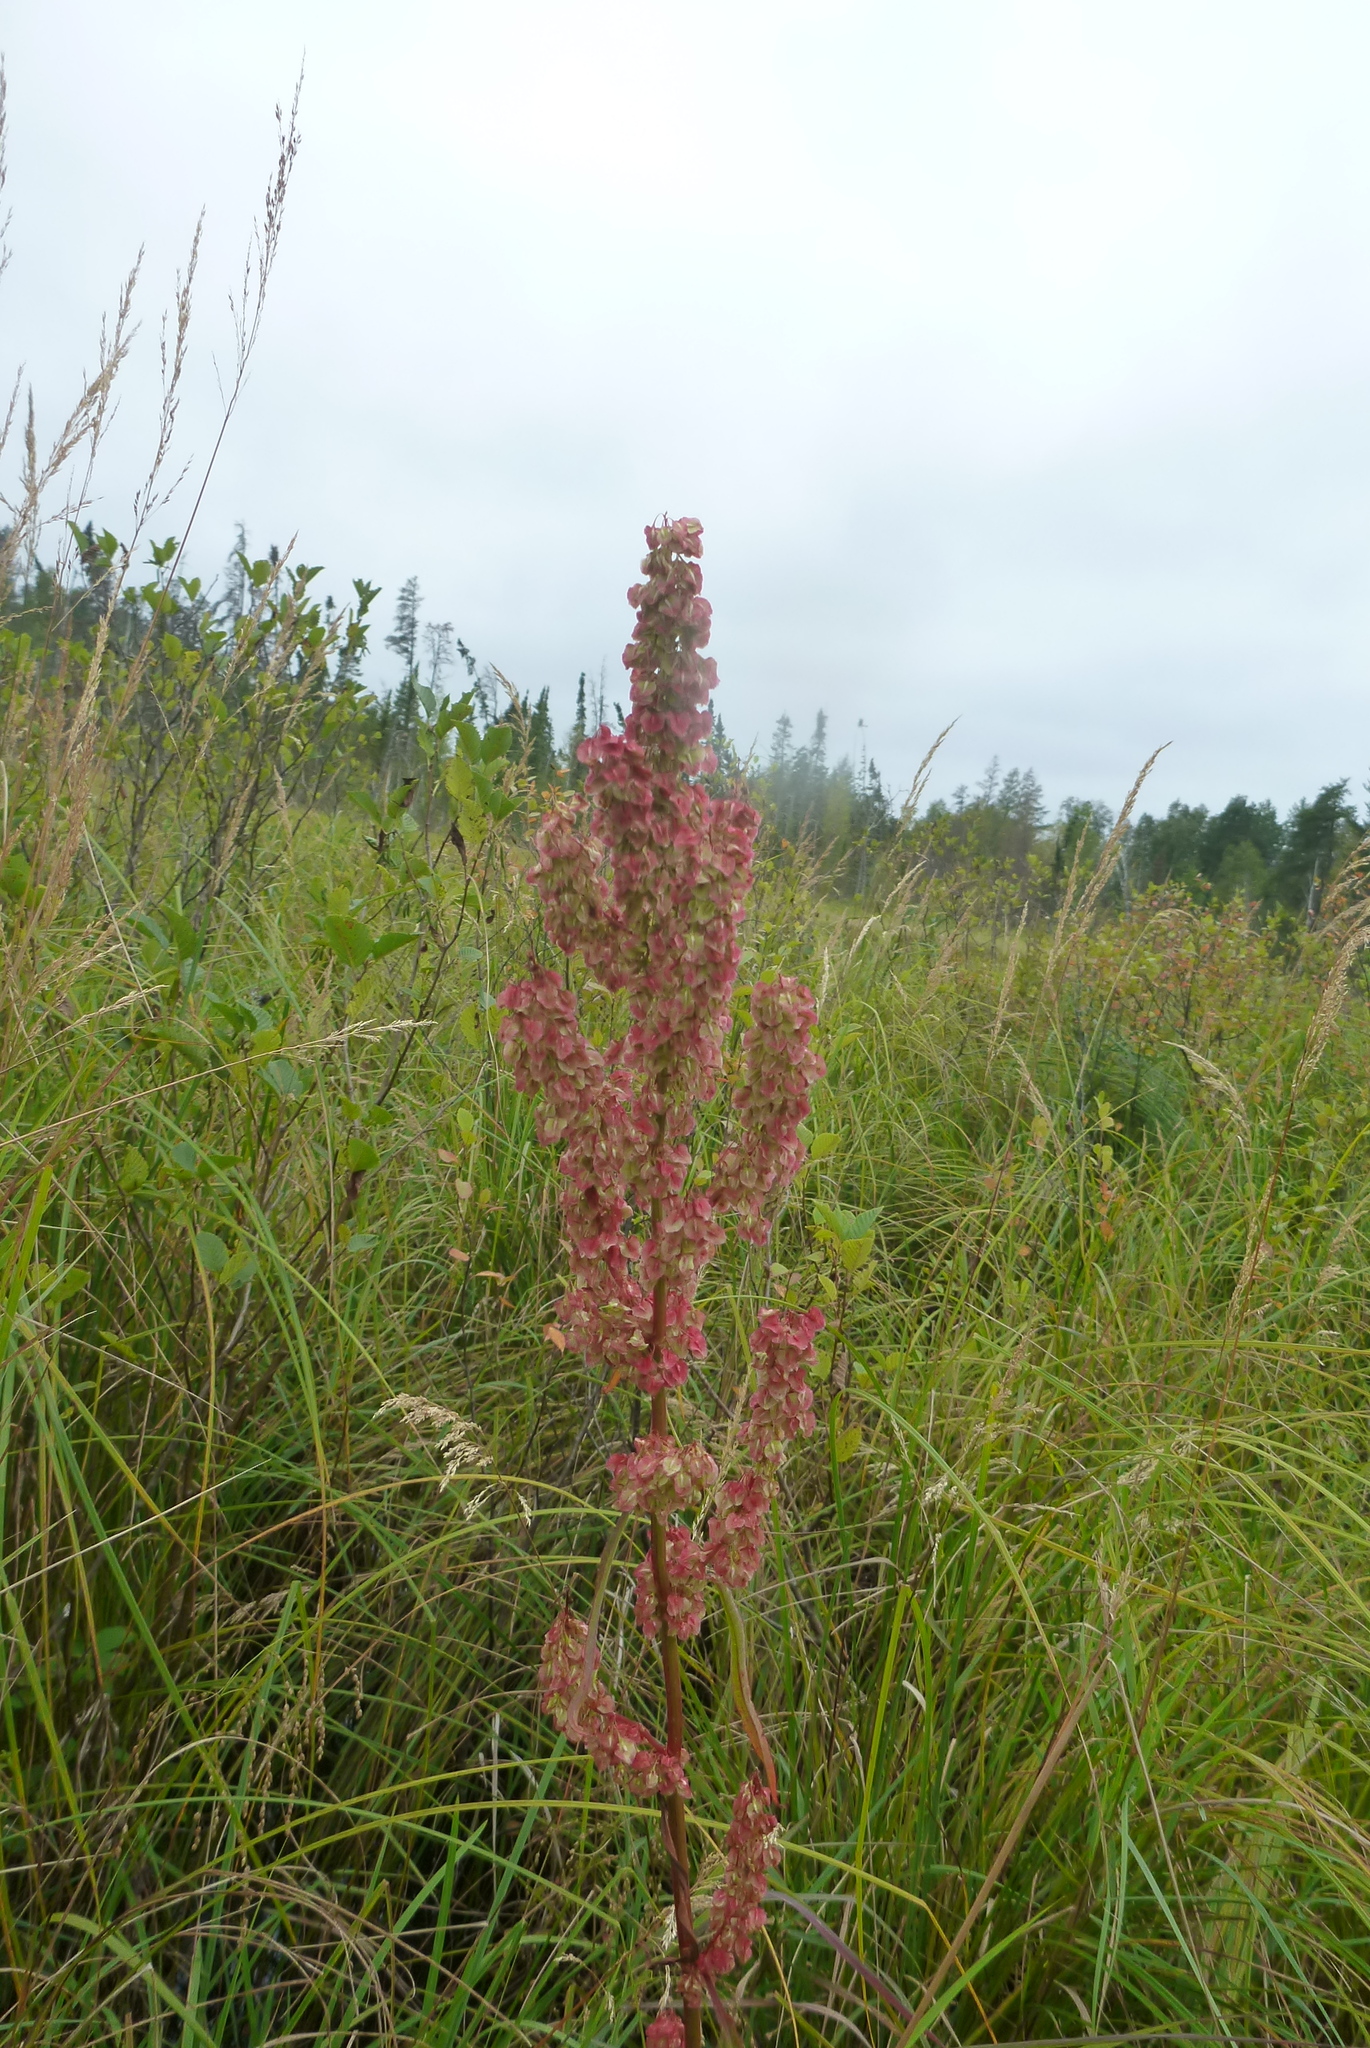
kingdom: Plantae
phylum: Tracheophyta
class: Magnoliopsida
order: Caryophyllales
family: Polygonaceae
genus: Rumex
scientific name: Rumex britannica
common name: British dock
